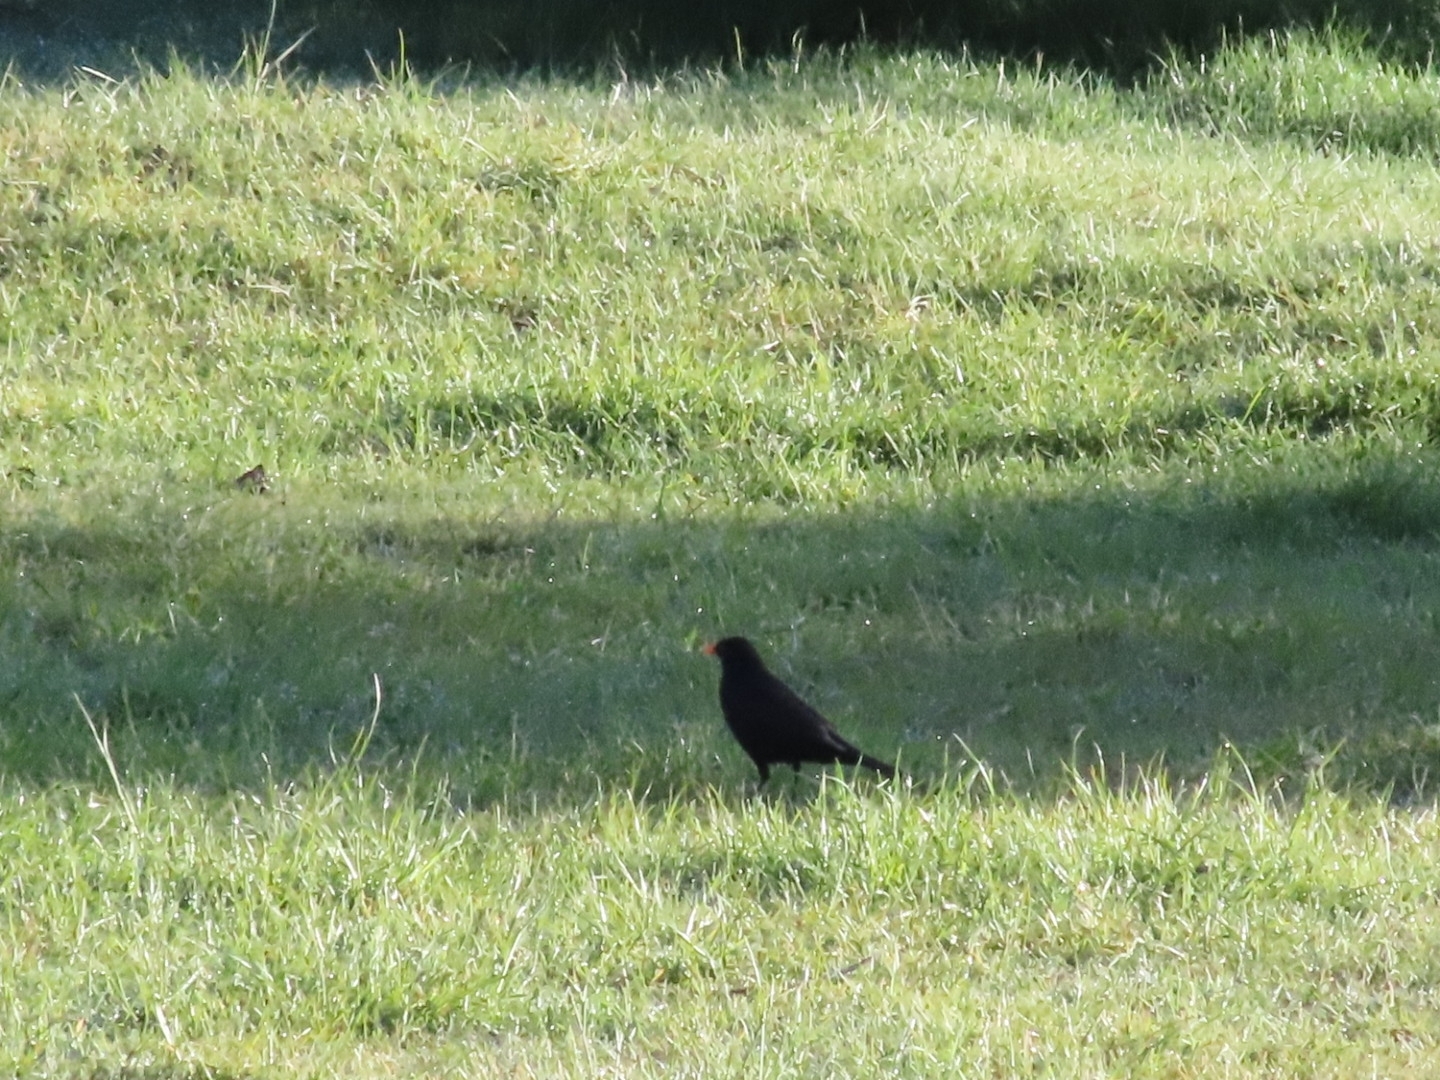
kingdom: Animalia
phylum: Chordata
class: Aves
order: Passeriformes
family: Turdidae
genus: Turdus
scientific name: Turdus merula
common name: Common blackbird
